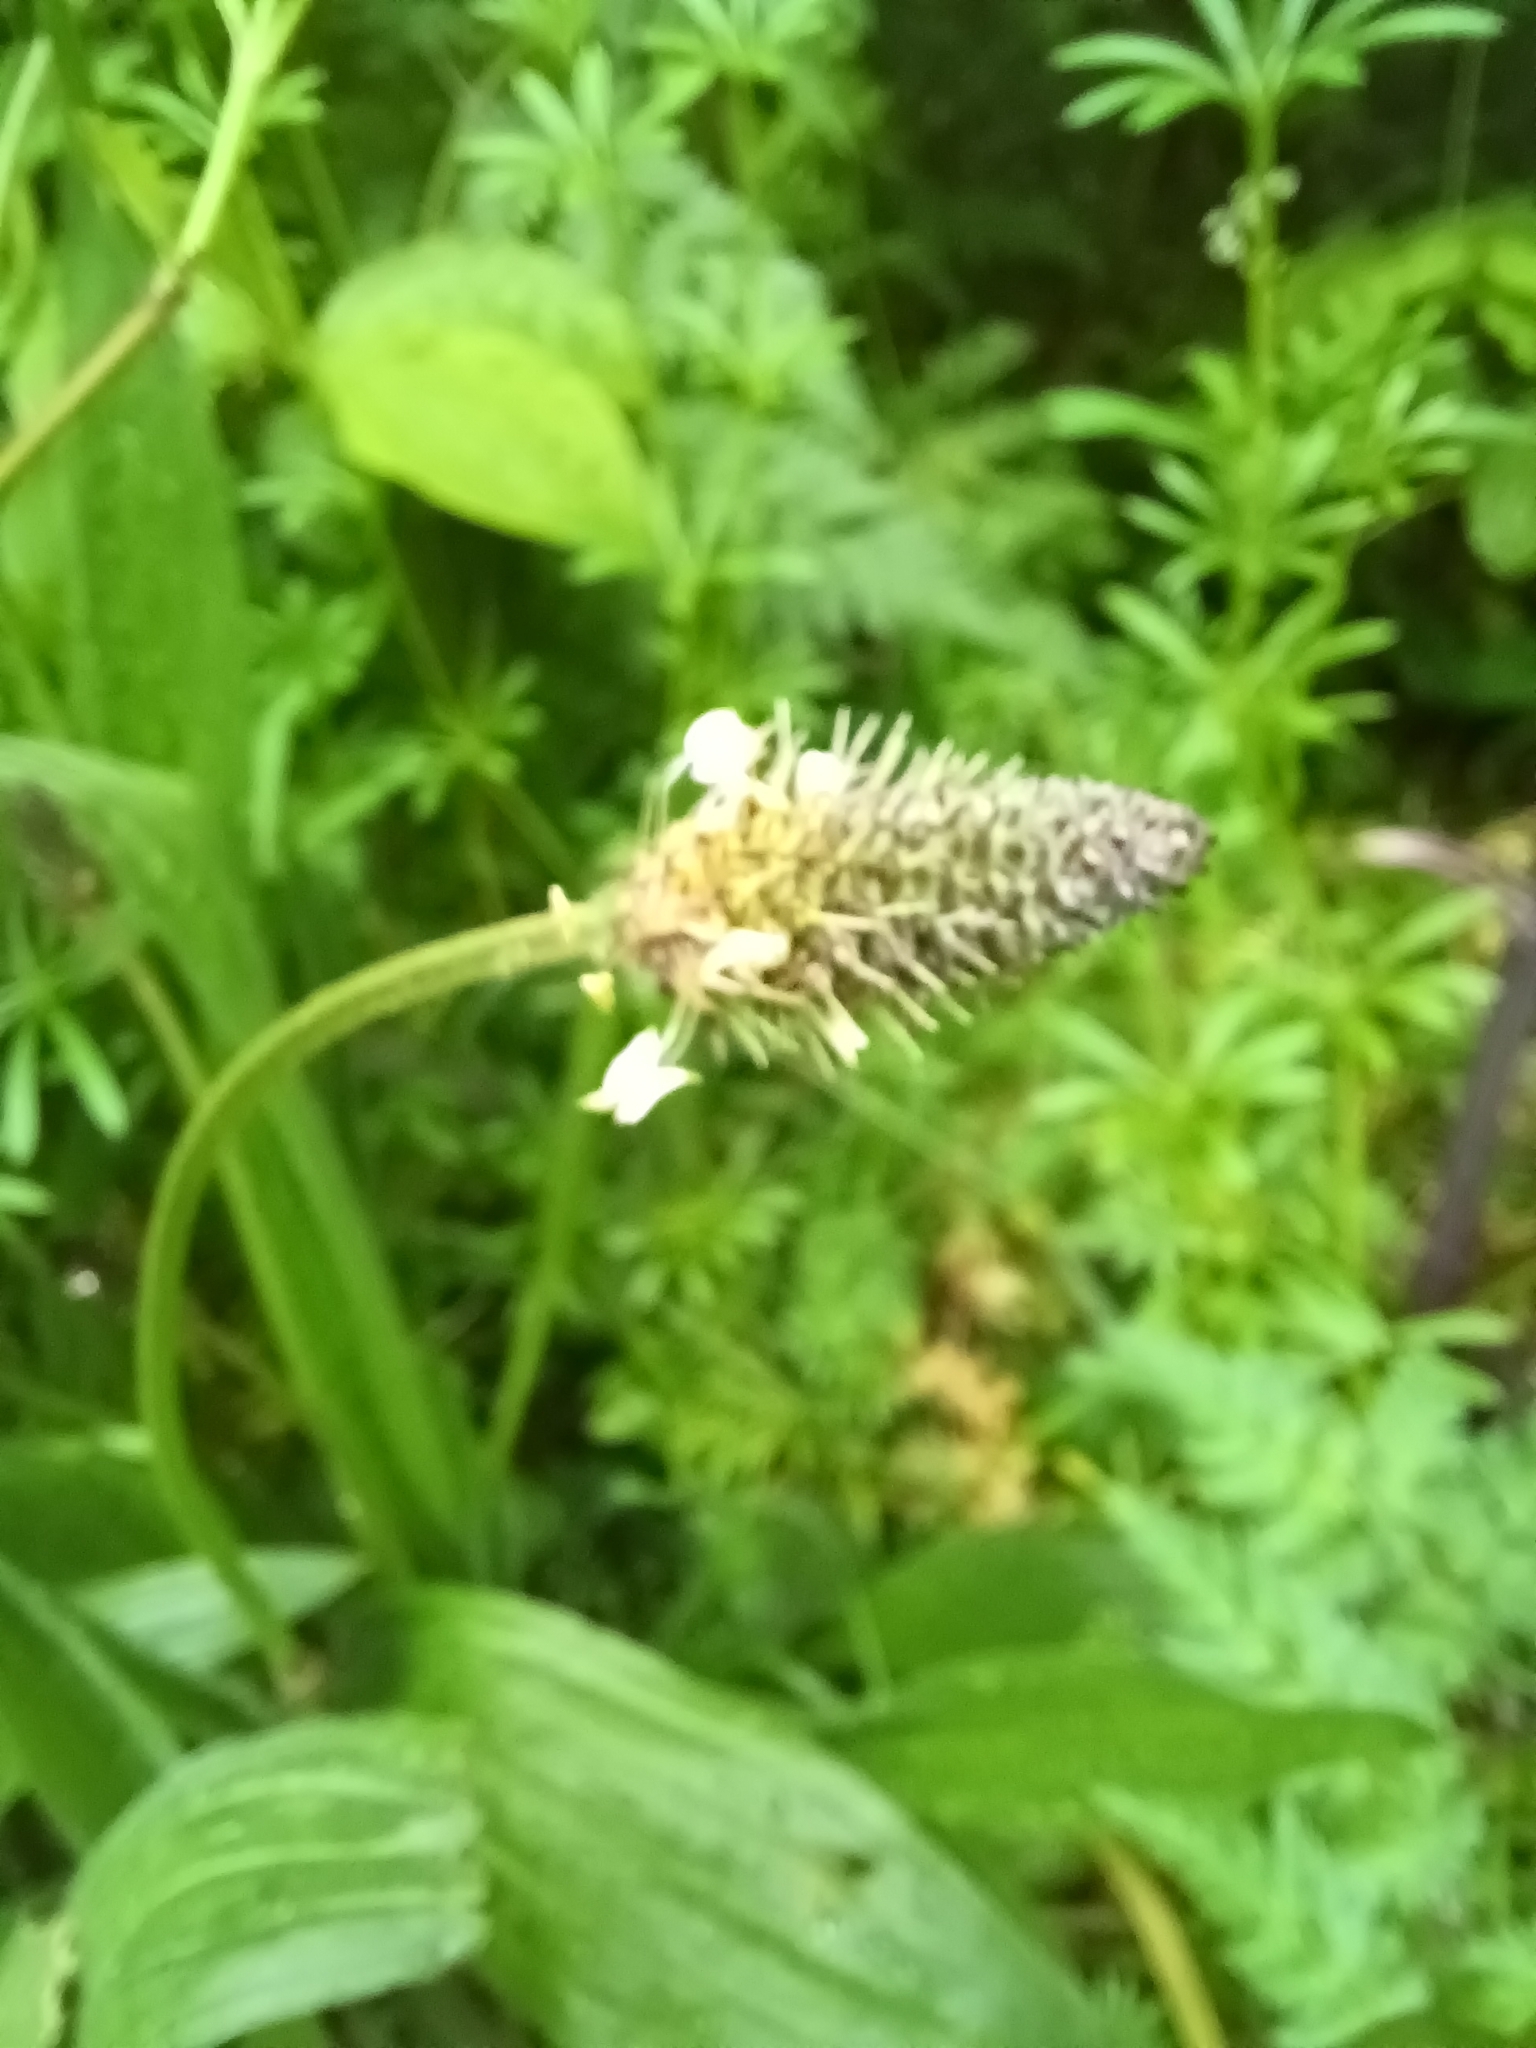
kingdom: Plantae
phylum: Tracheophyta
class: Magnoliopsida
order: Lamiales
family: Plantaginaceae
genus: Plantago
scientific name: Plantago lanceolata
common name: Ribwort plantain
